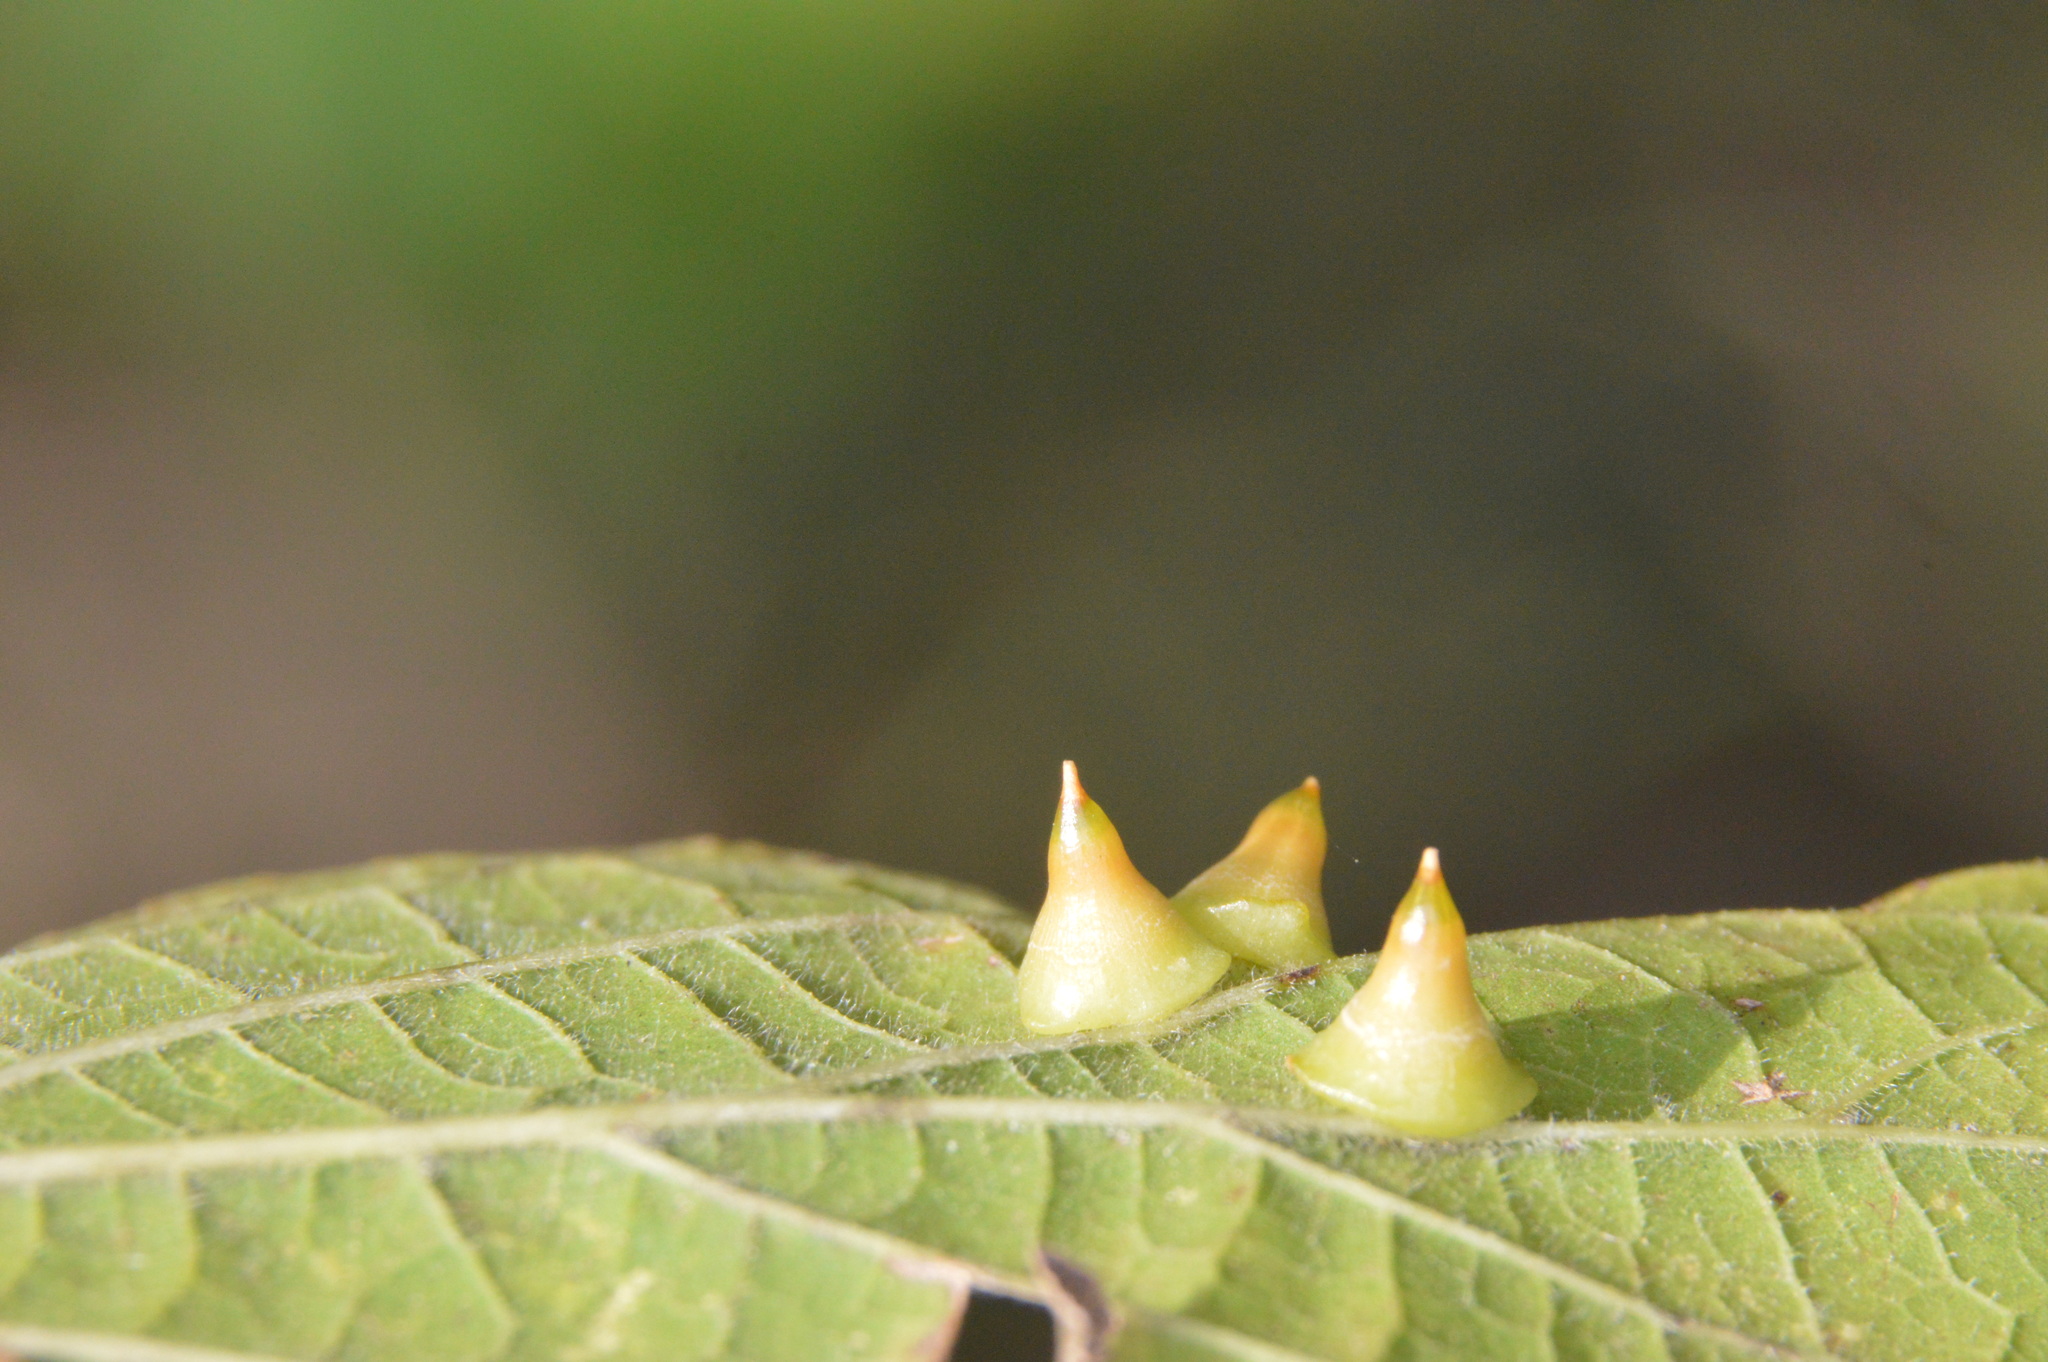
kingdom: Animalia
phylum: Arthropoda
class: Insecta
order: Diptera
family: Cecidomyiidae
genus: Celticecis
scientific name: Celticecis spiniformis
